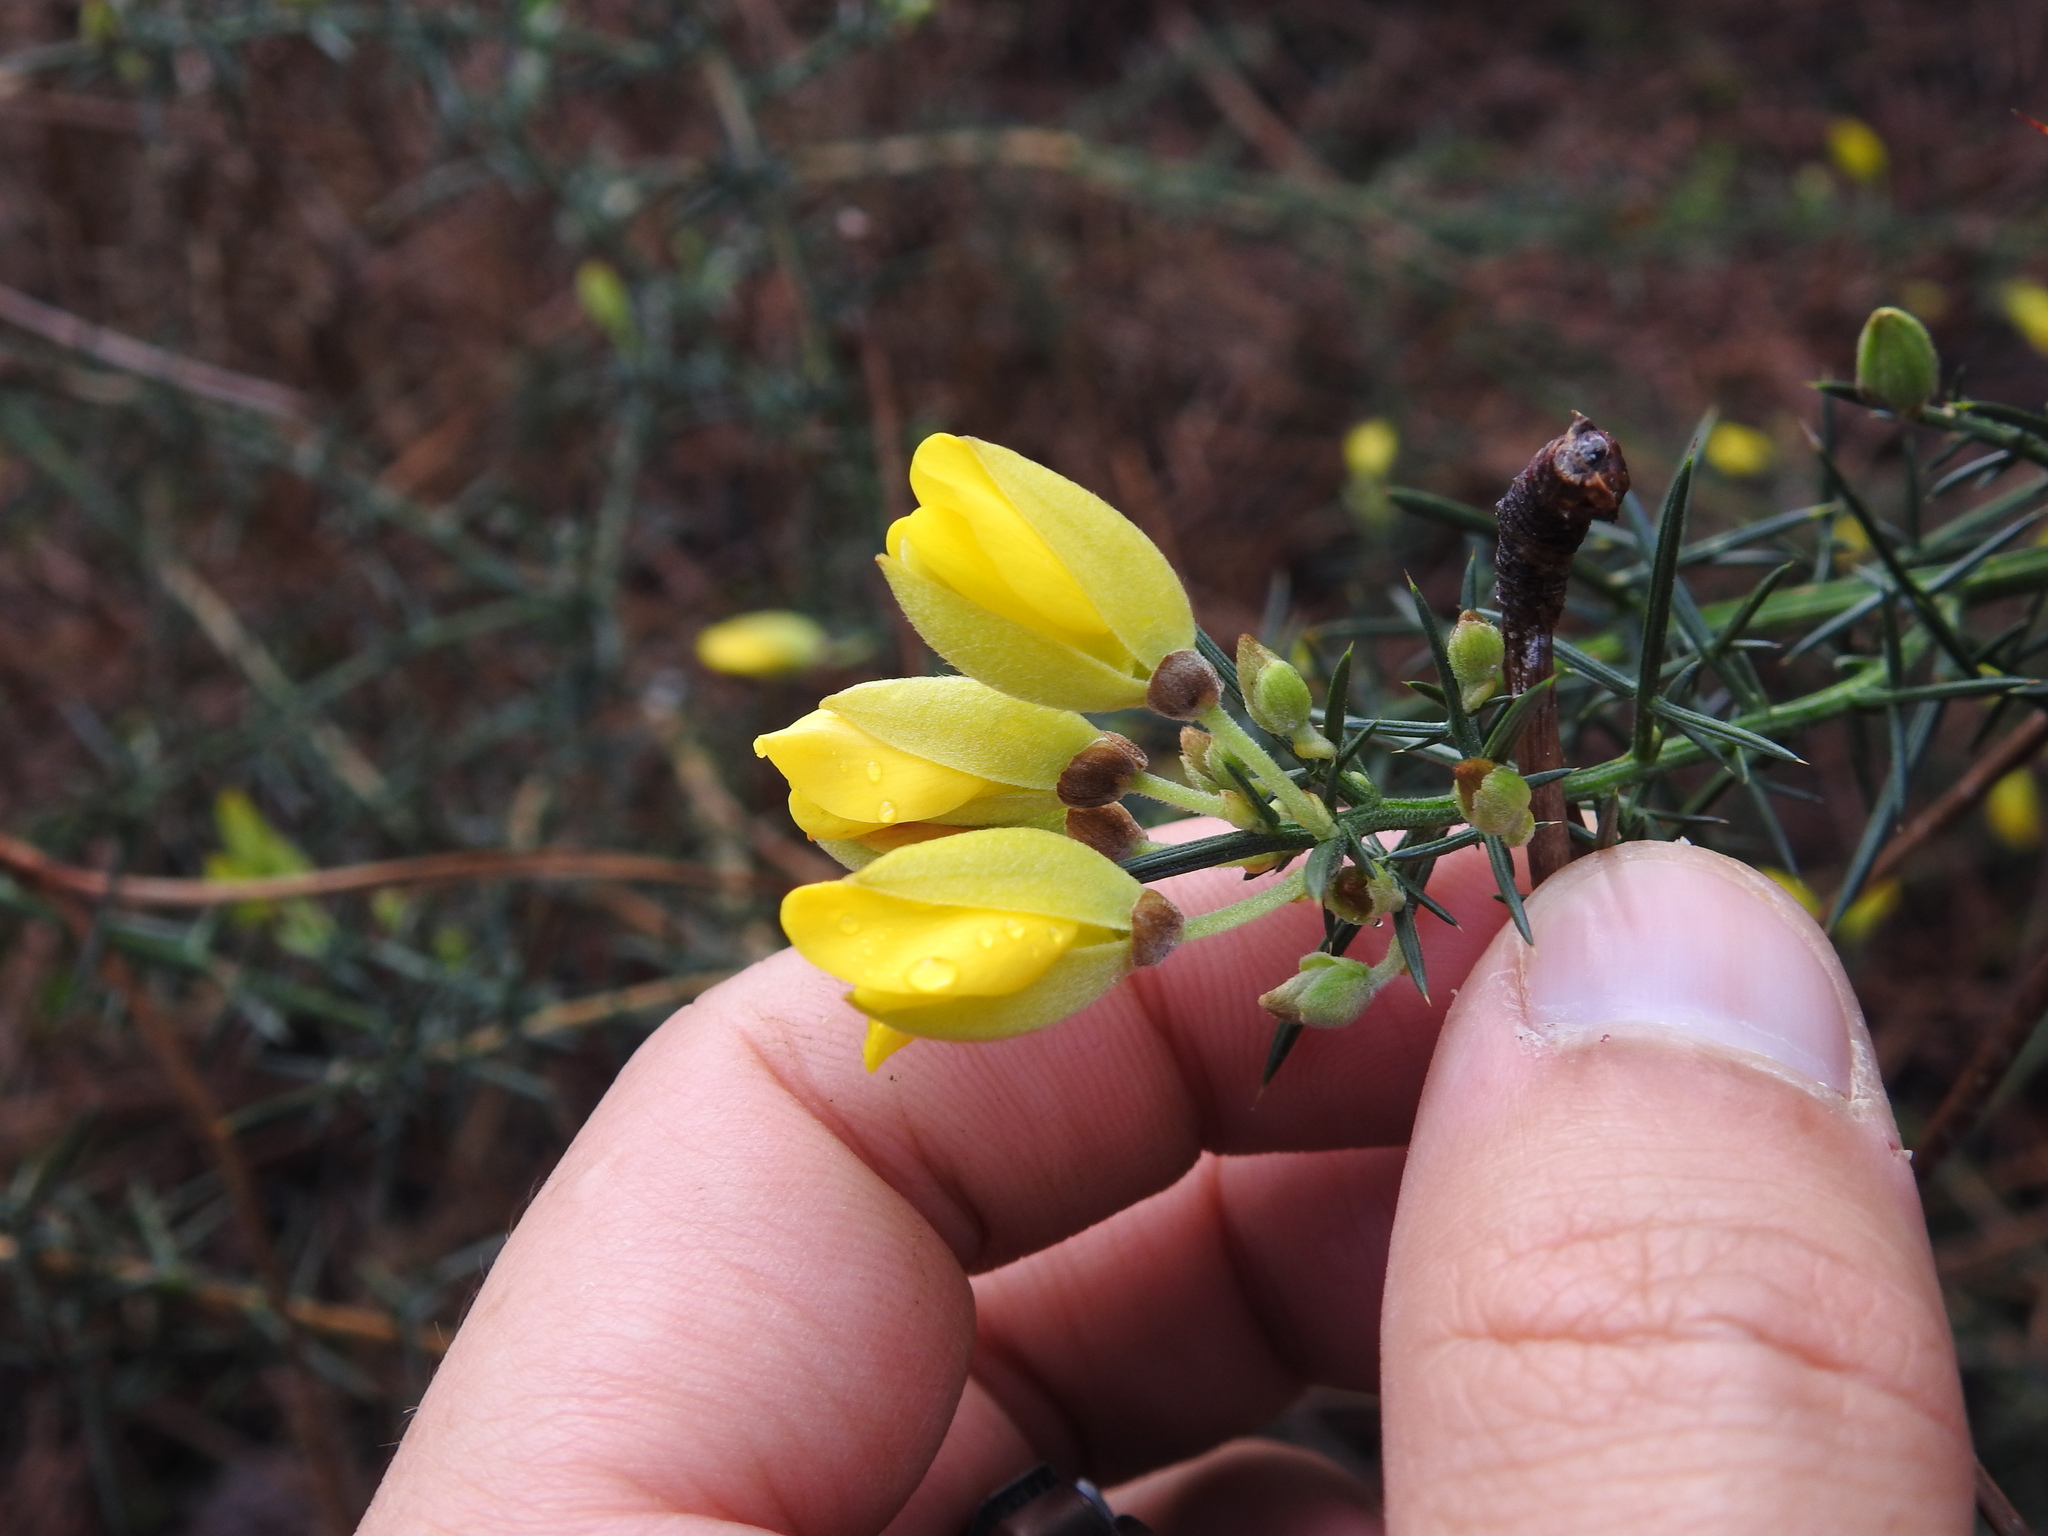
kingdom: Plantae
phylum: Tracheophyta
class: Magnoliopsida
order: Fabales
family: Fabaceae
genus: Ulex
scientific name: Ulex europaeus
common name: Common gorse
